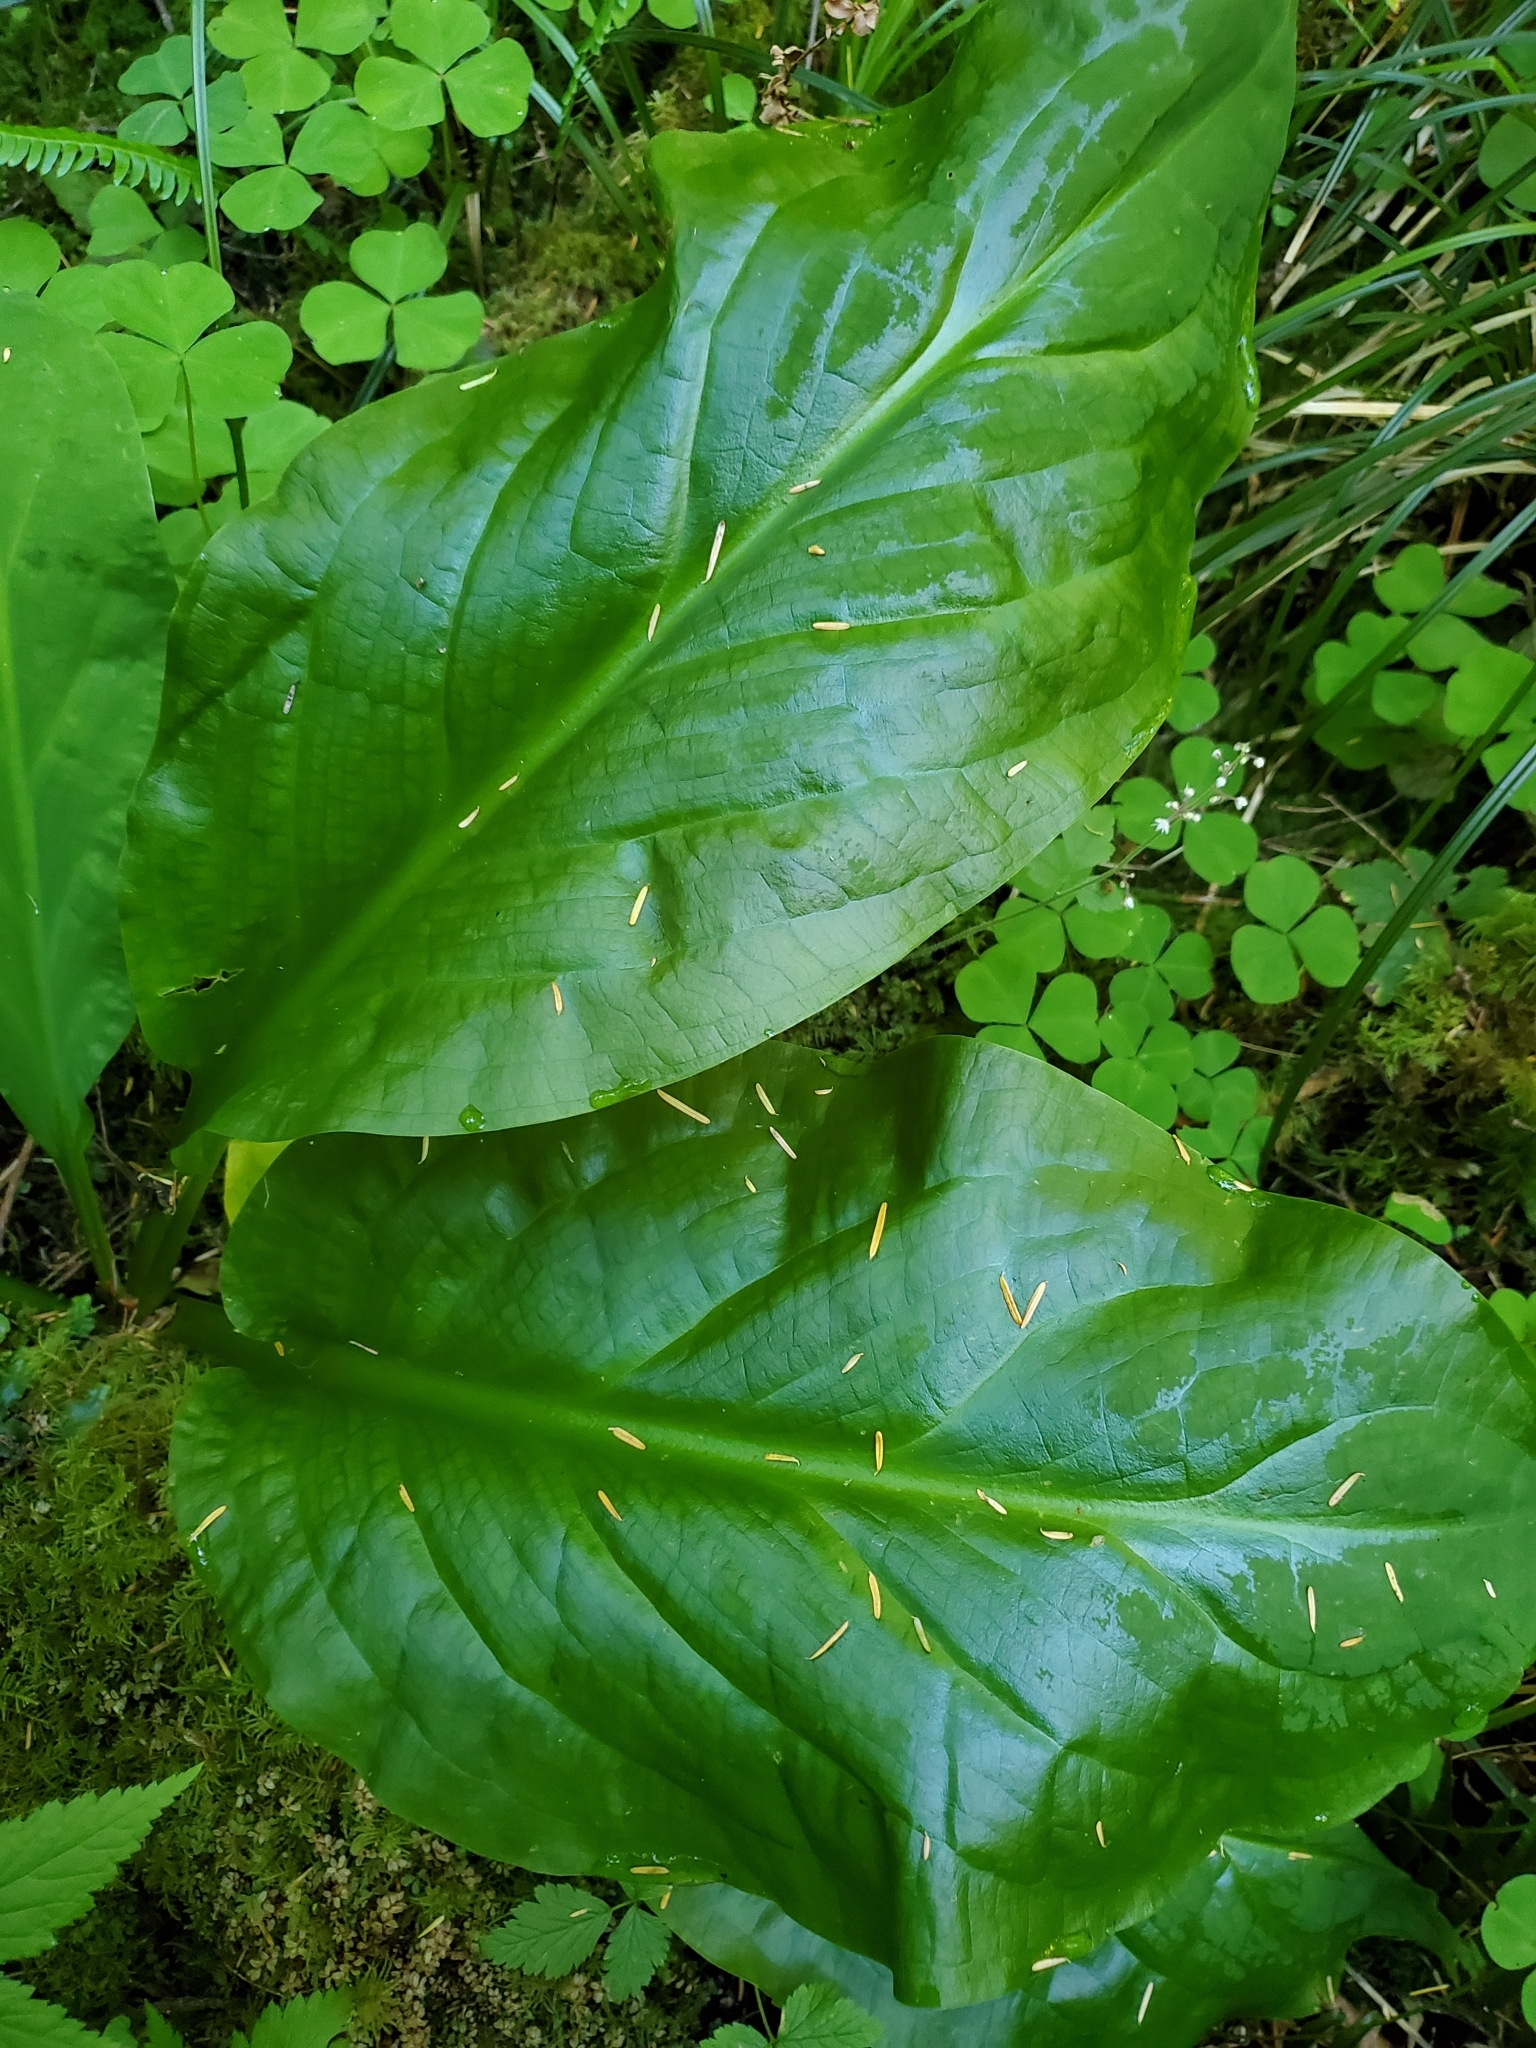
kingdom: Plantae
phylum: Tracheophyta
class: Liliopsida
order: Alismatales
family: Araceae
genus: Lysichiton
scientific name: Lysichiton americanus
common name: American skunk cabbage
